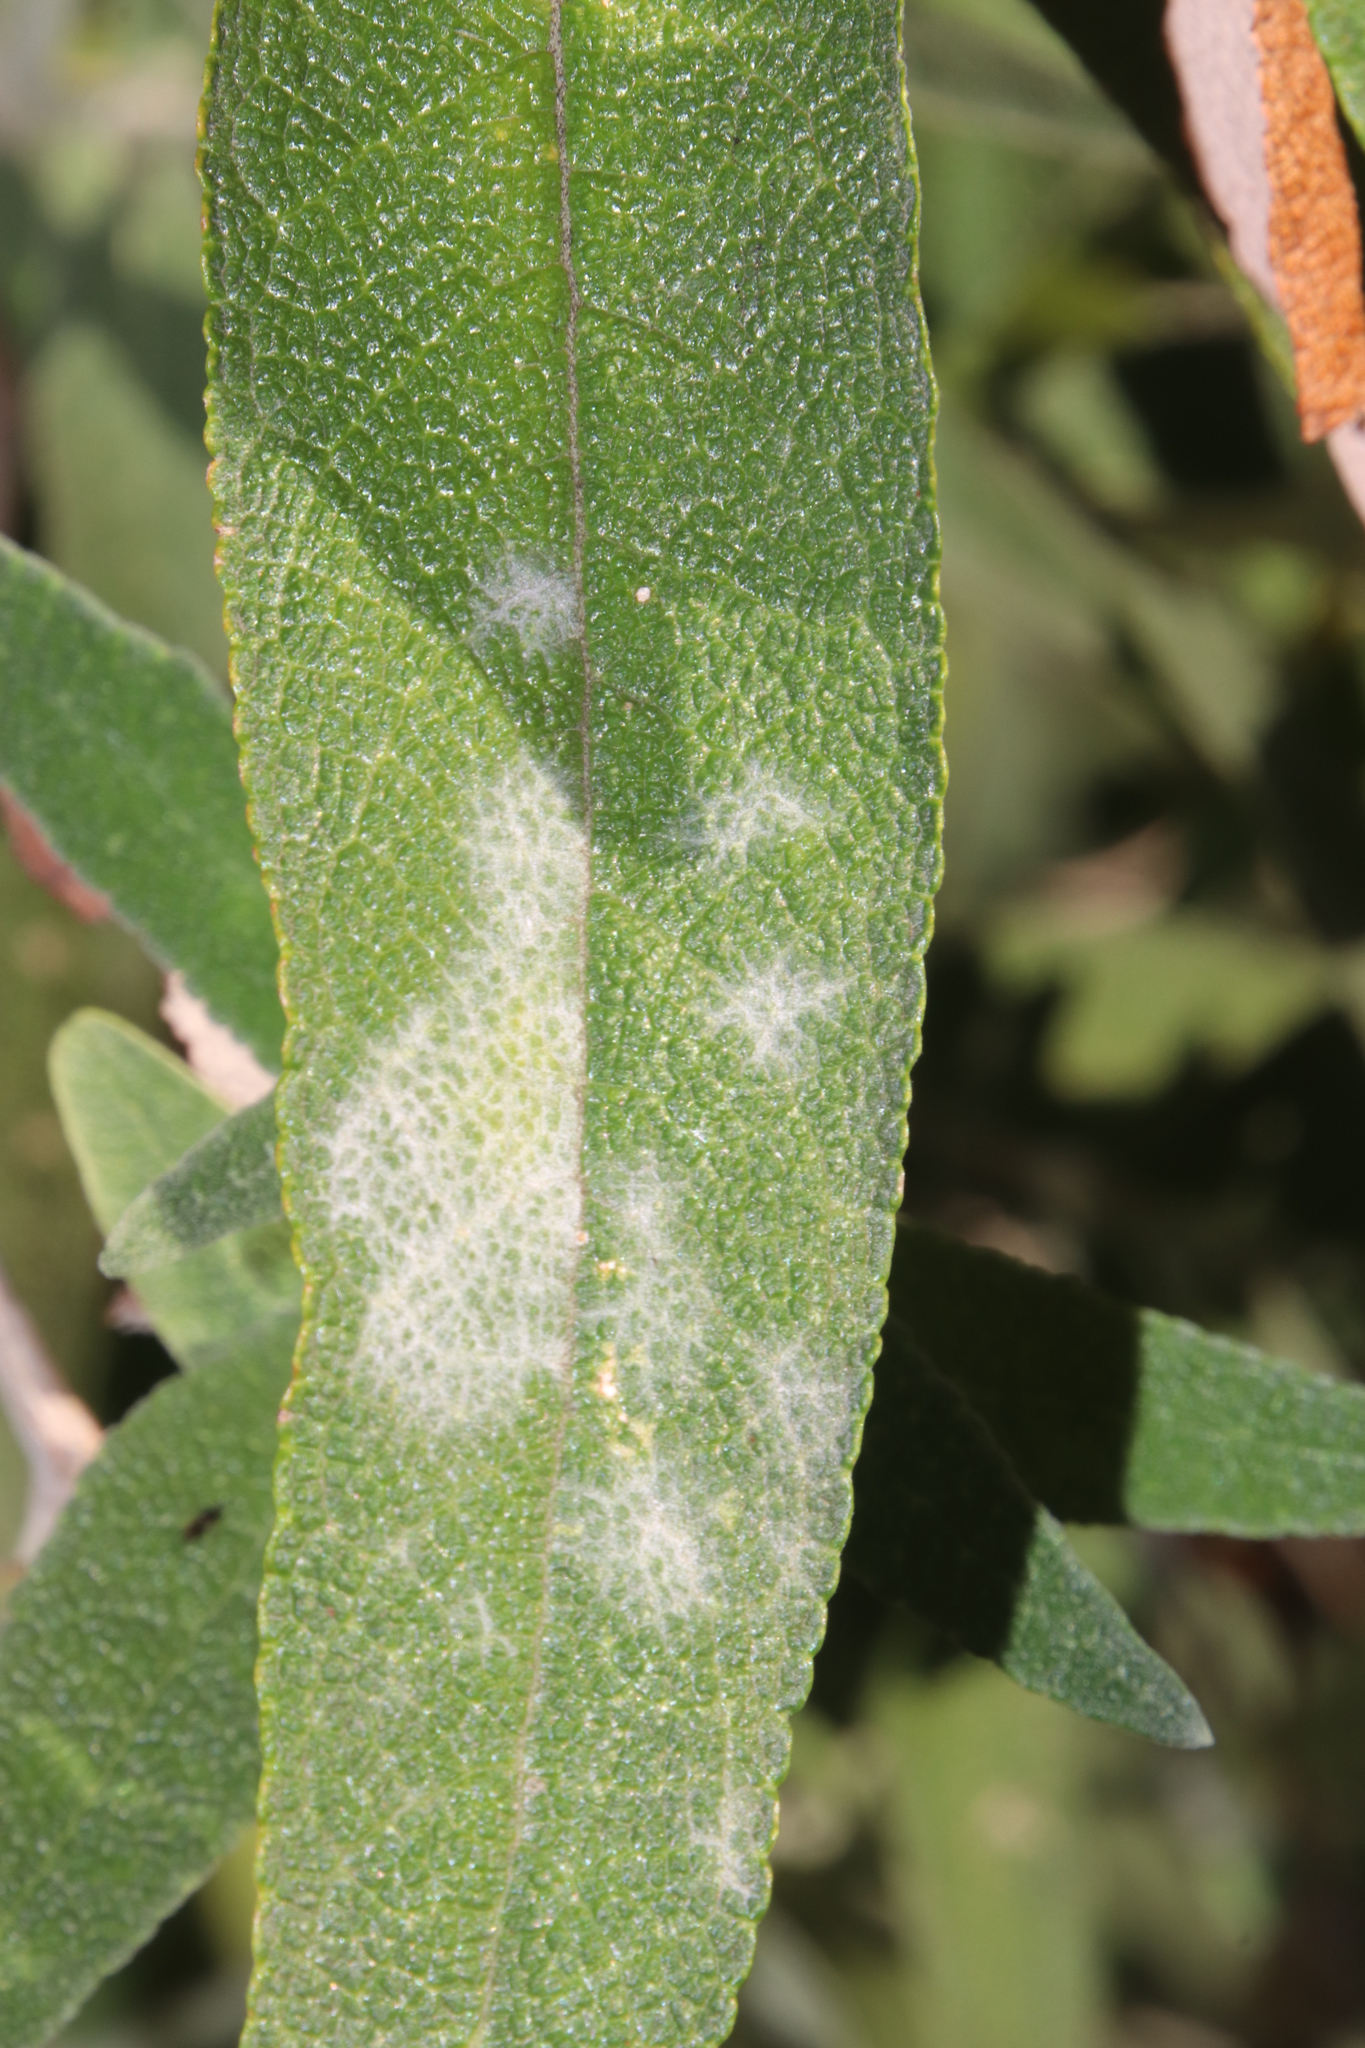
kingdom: Fungi
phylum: Ascomycota
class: Leotiomycetes
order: Helotiales
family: Erysiphaceae
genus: Pseudoidium
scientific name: Pseudoidium buddlejae
